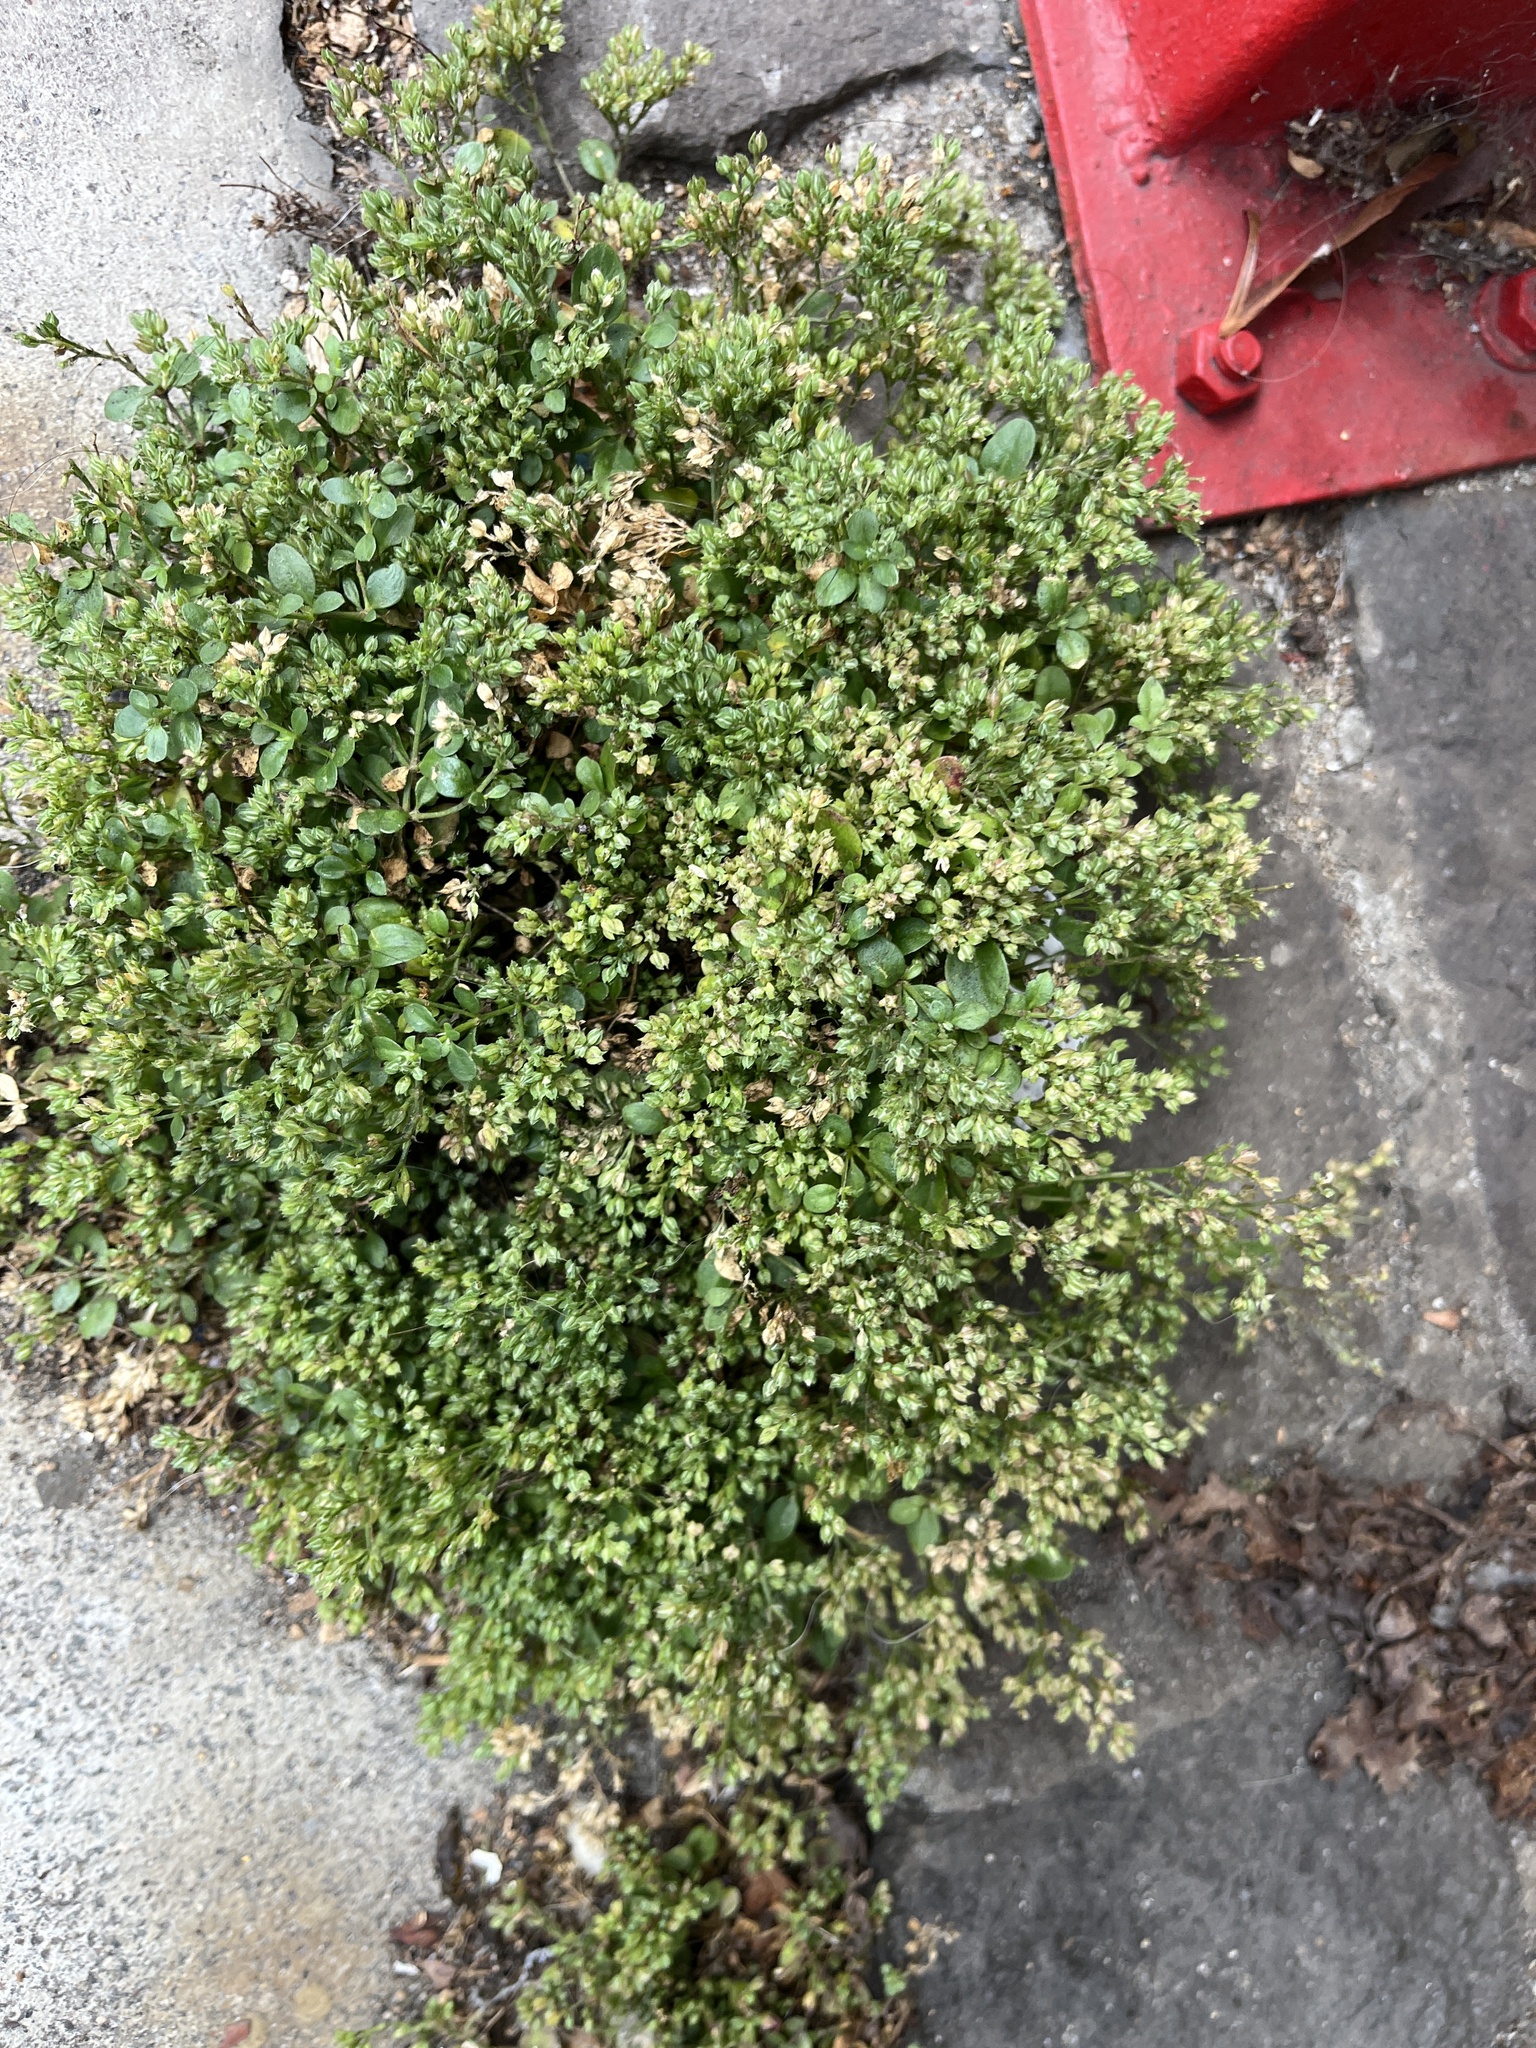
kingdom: Plantae
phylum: Tracheophyta
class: Magnoliopsida
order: Caryophyllales
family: Caryophyllaceae
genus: Polycarpon
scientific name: Polycarpon tetraphyllum
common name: Four-leaved all-seed
